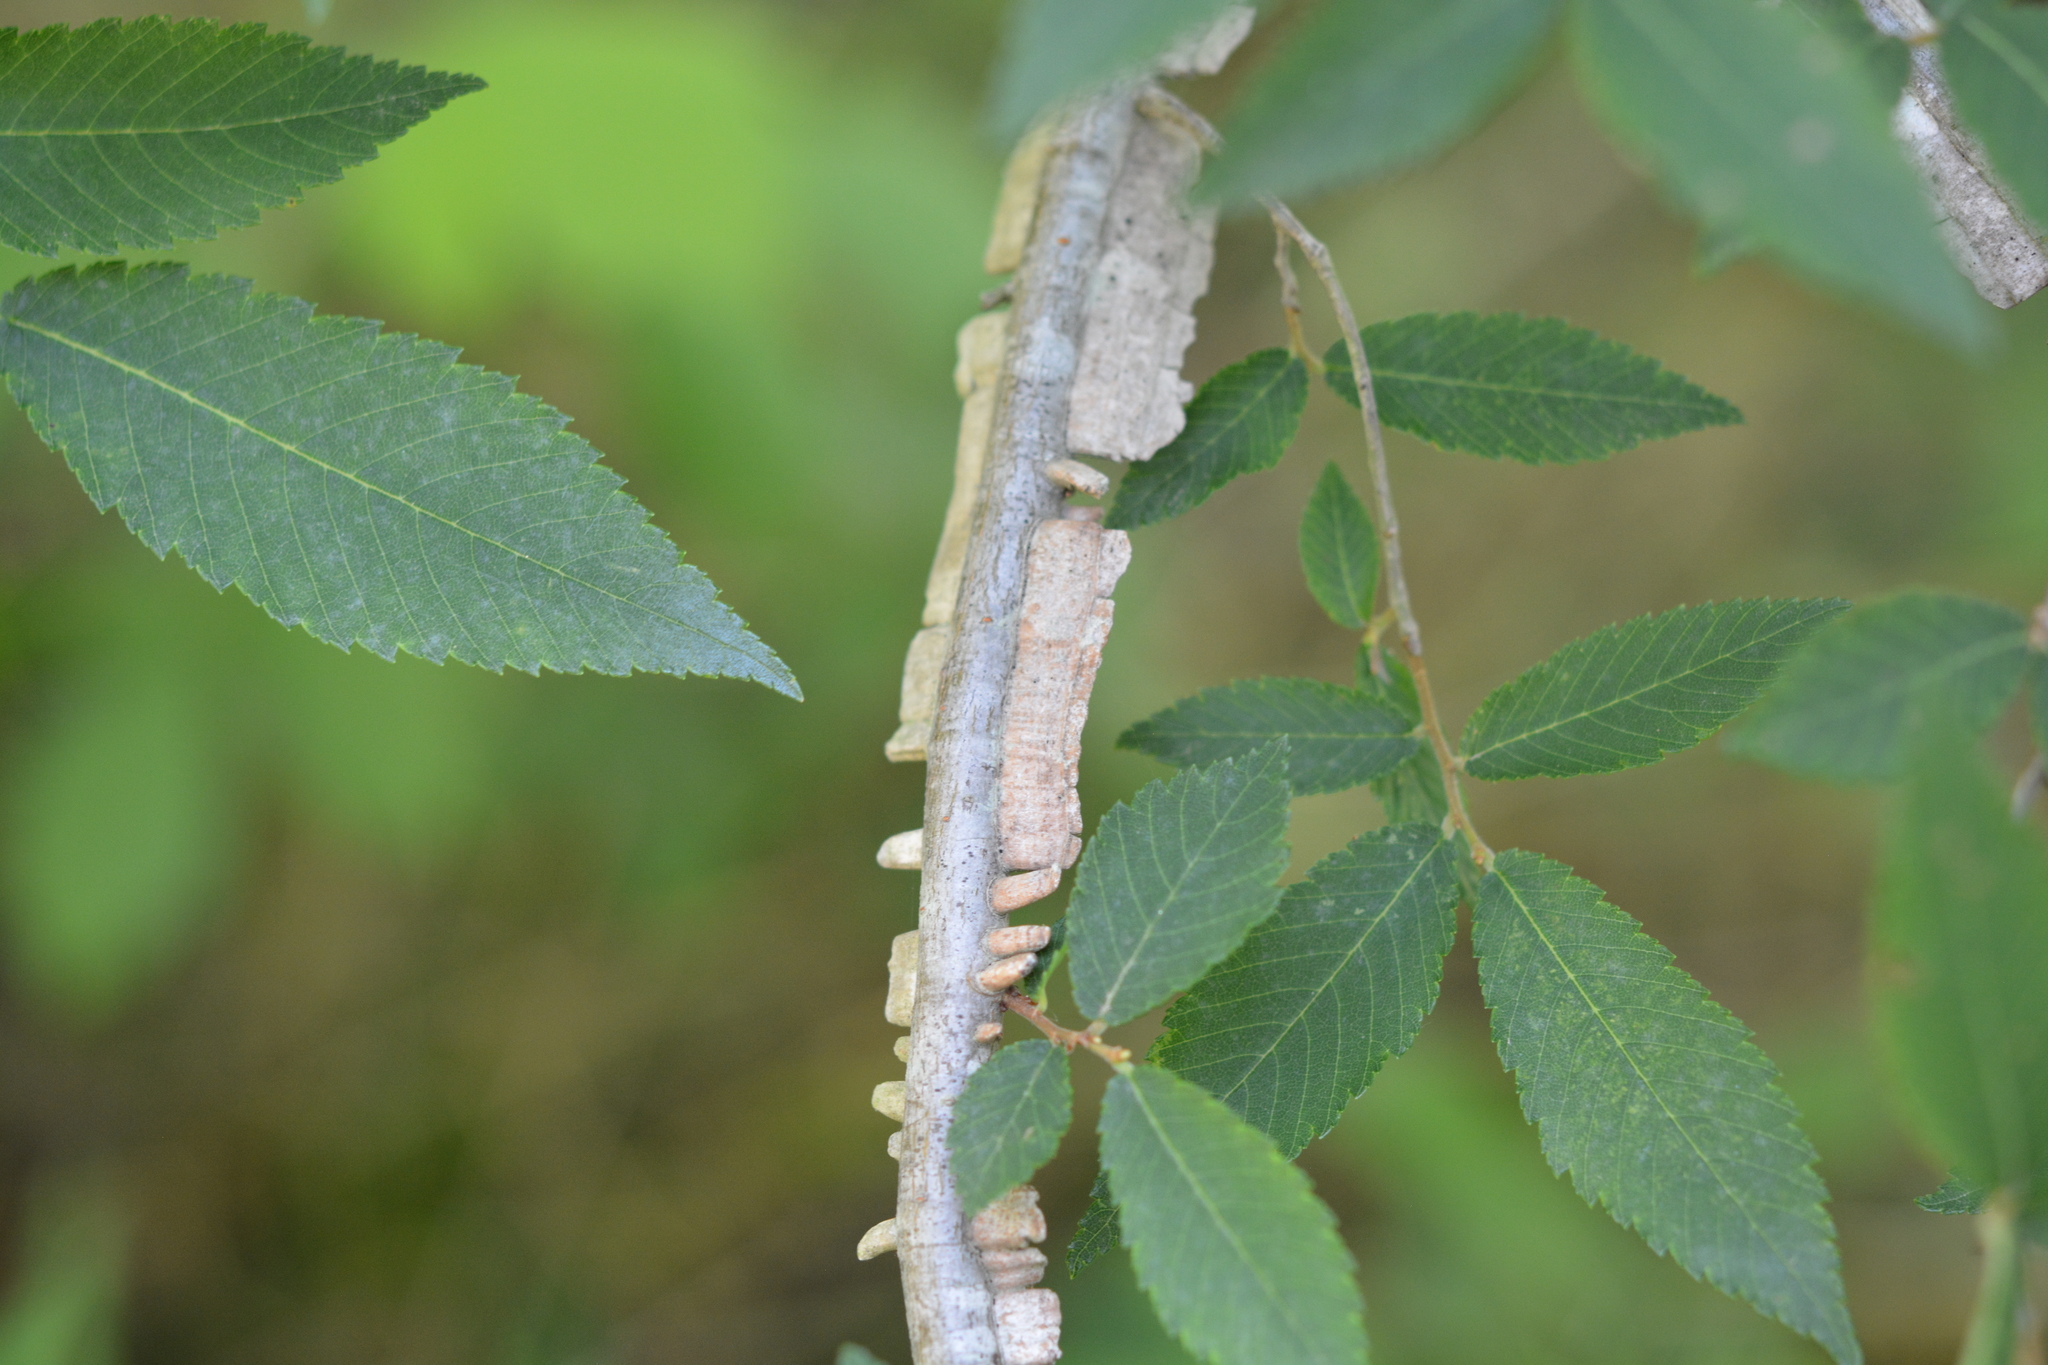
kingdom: Plantae
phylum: Tracheophyta
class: Magnoliopsida
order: Rosales
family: Ulmaceae
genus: Ulmus
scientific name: Ulmus alata
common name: Winged elm
